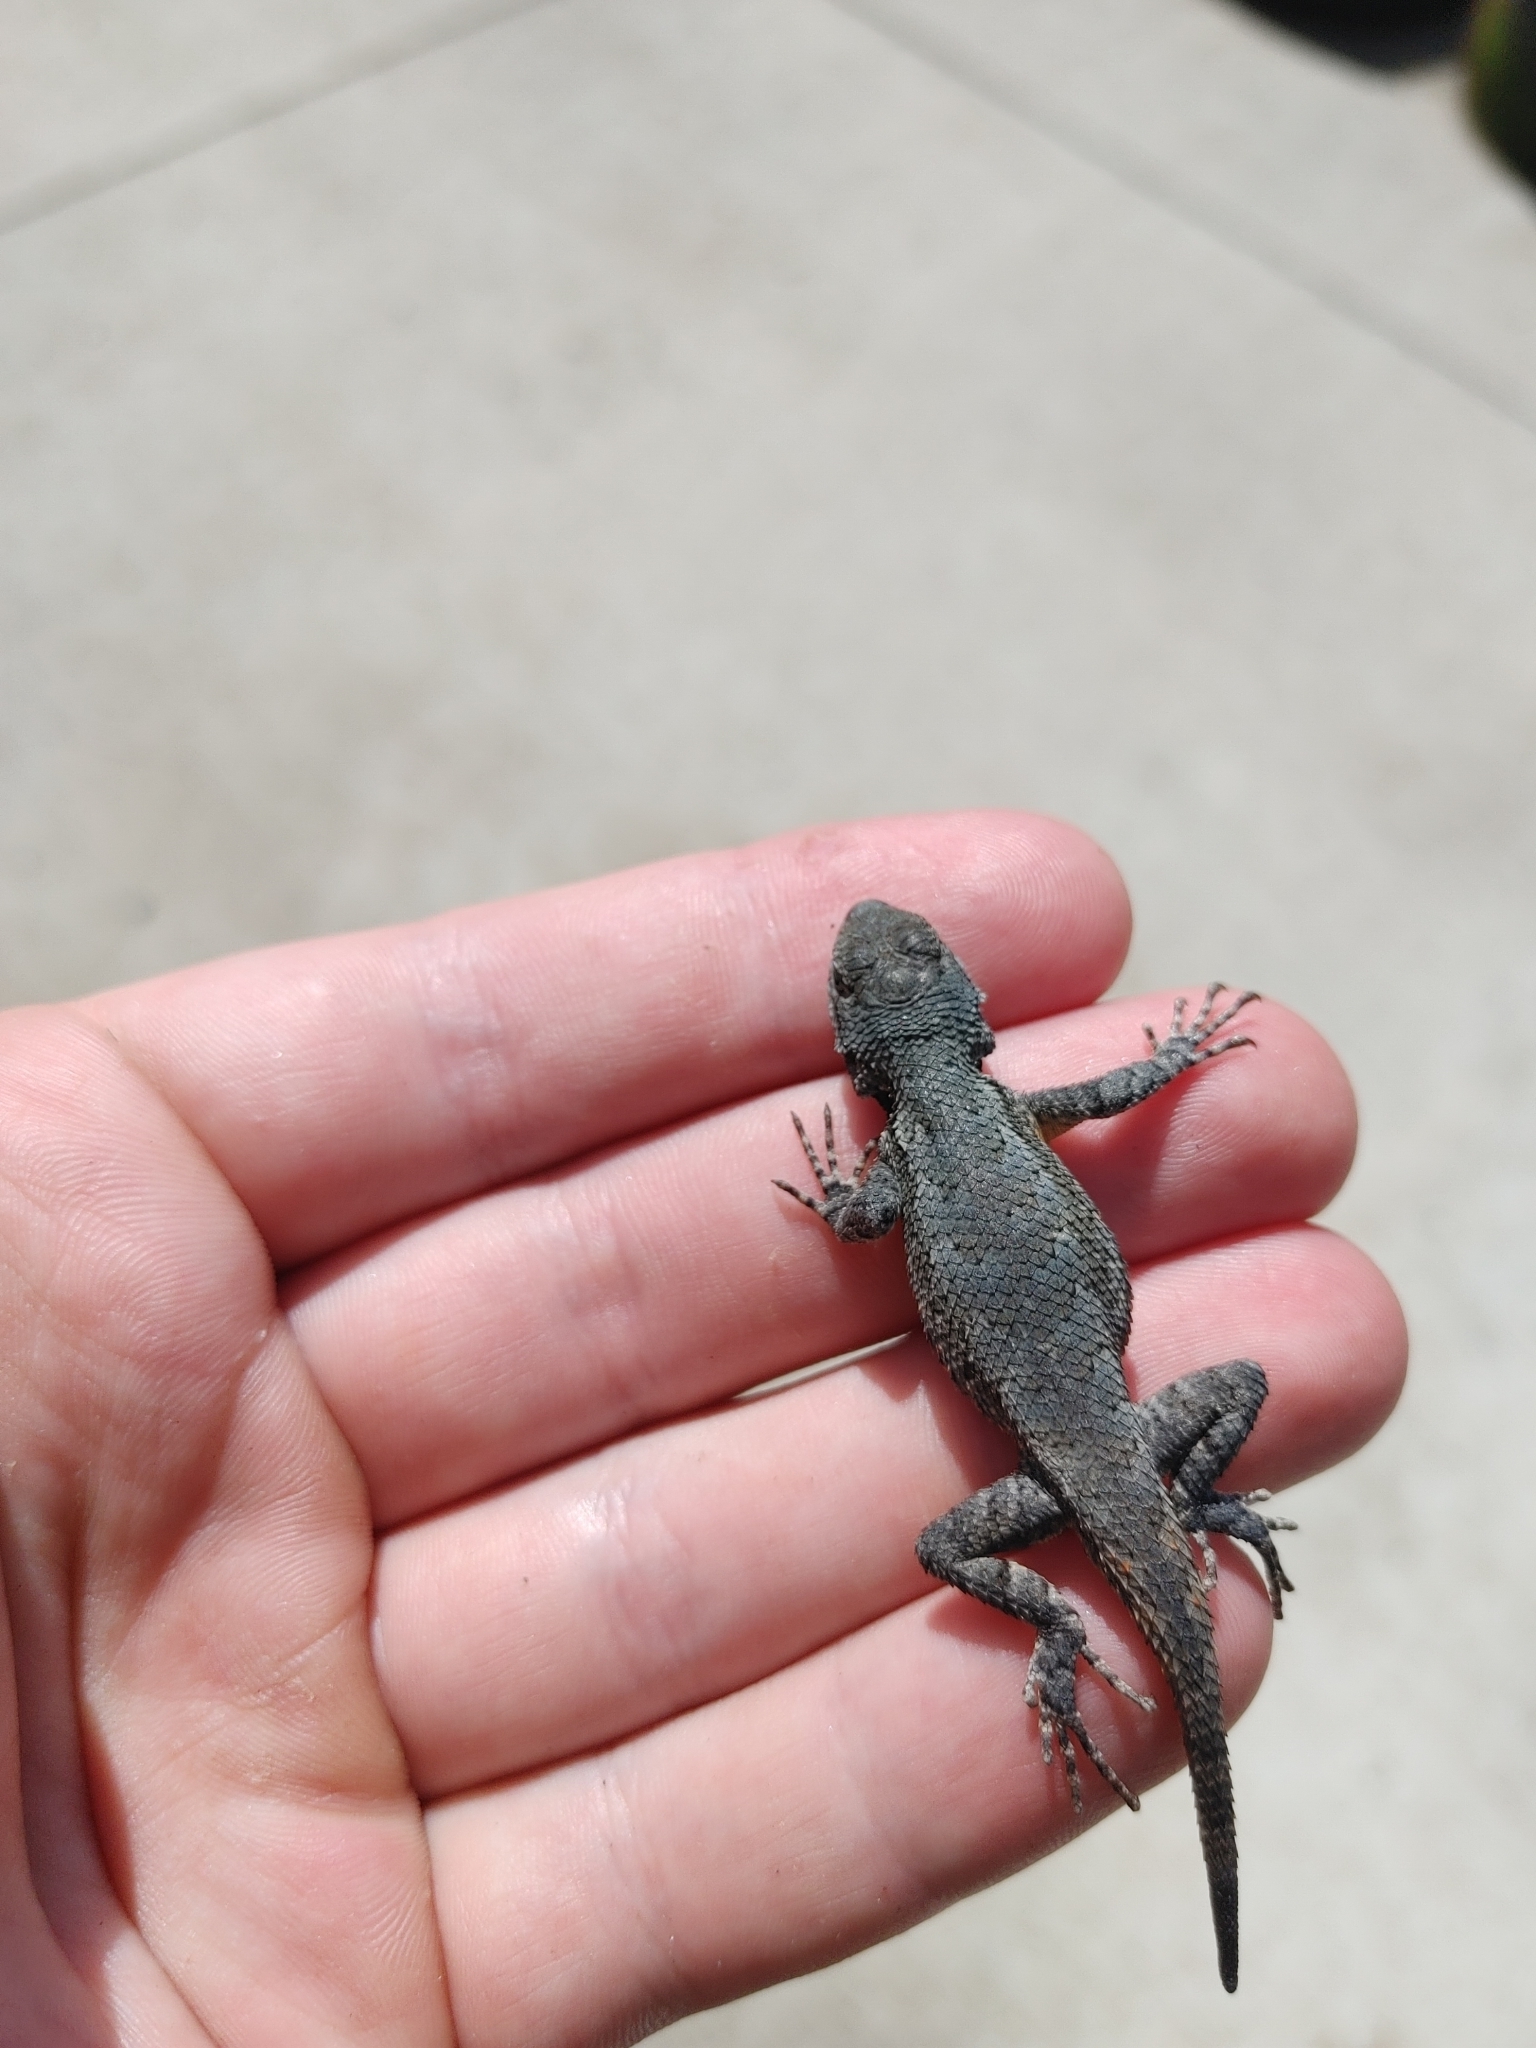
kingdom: Animalia
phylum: Chordata
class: Squamata
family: Phrynosomatidae
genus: Sceloporus
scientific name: Sceloporus undulatus
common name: Eastern fence lizard
